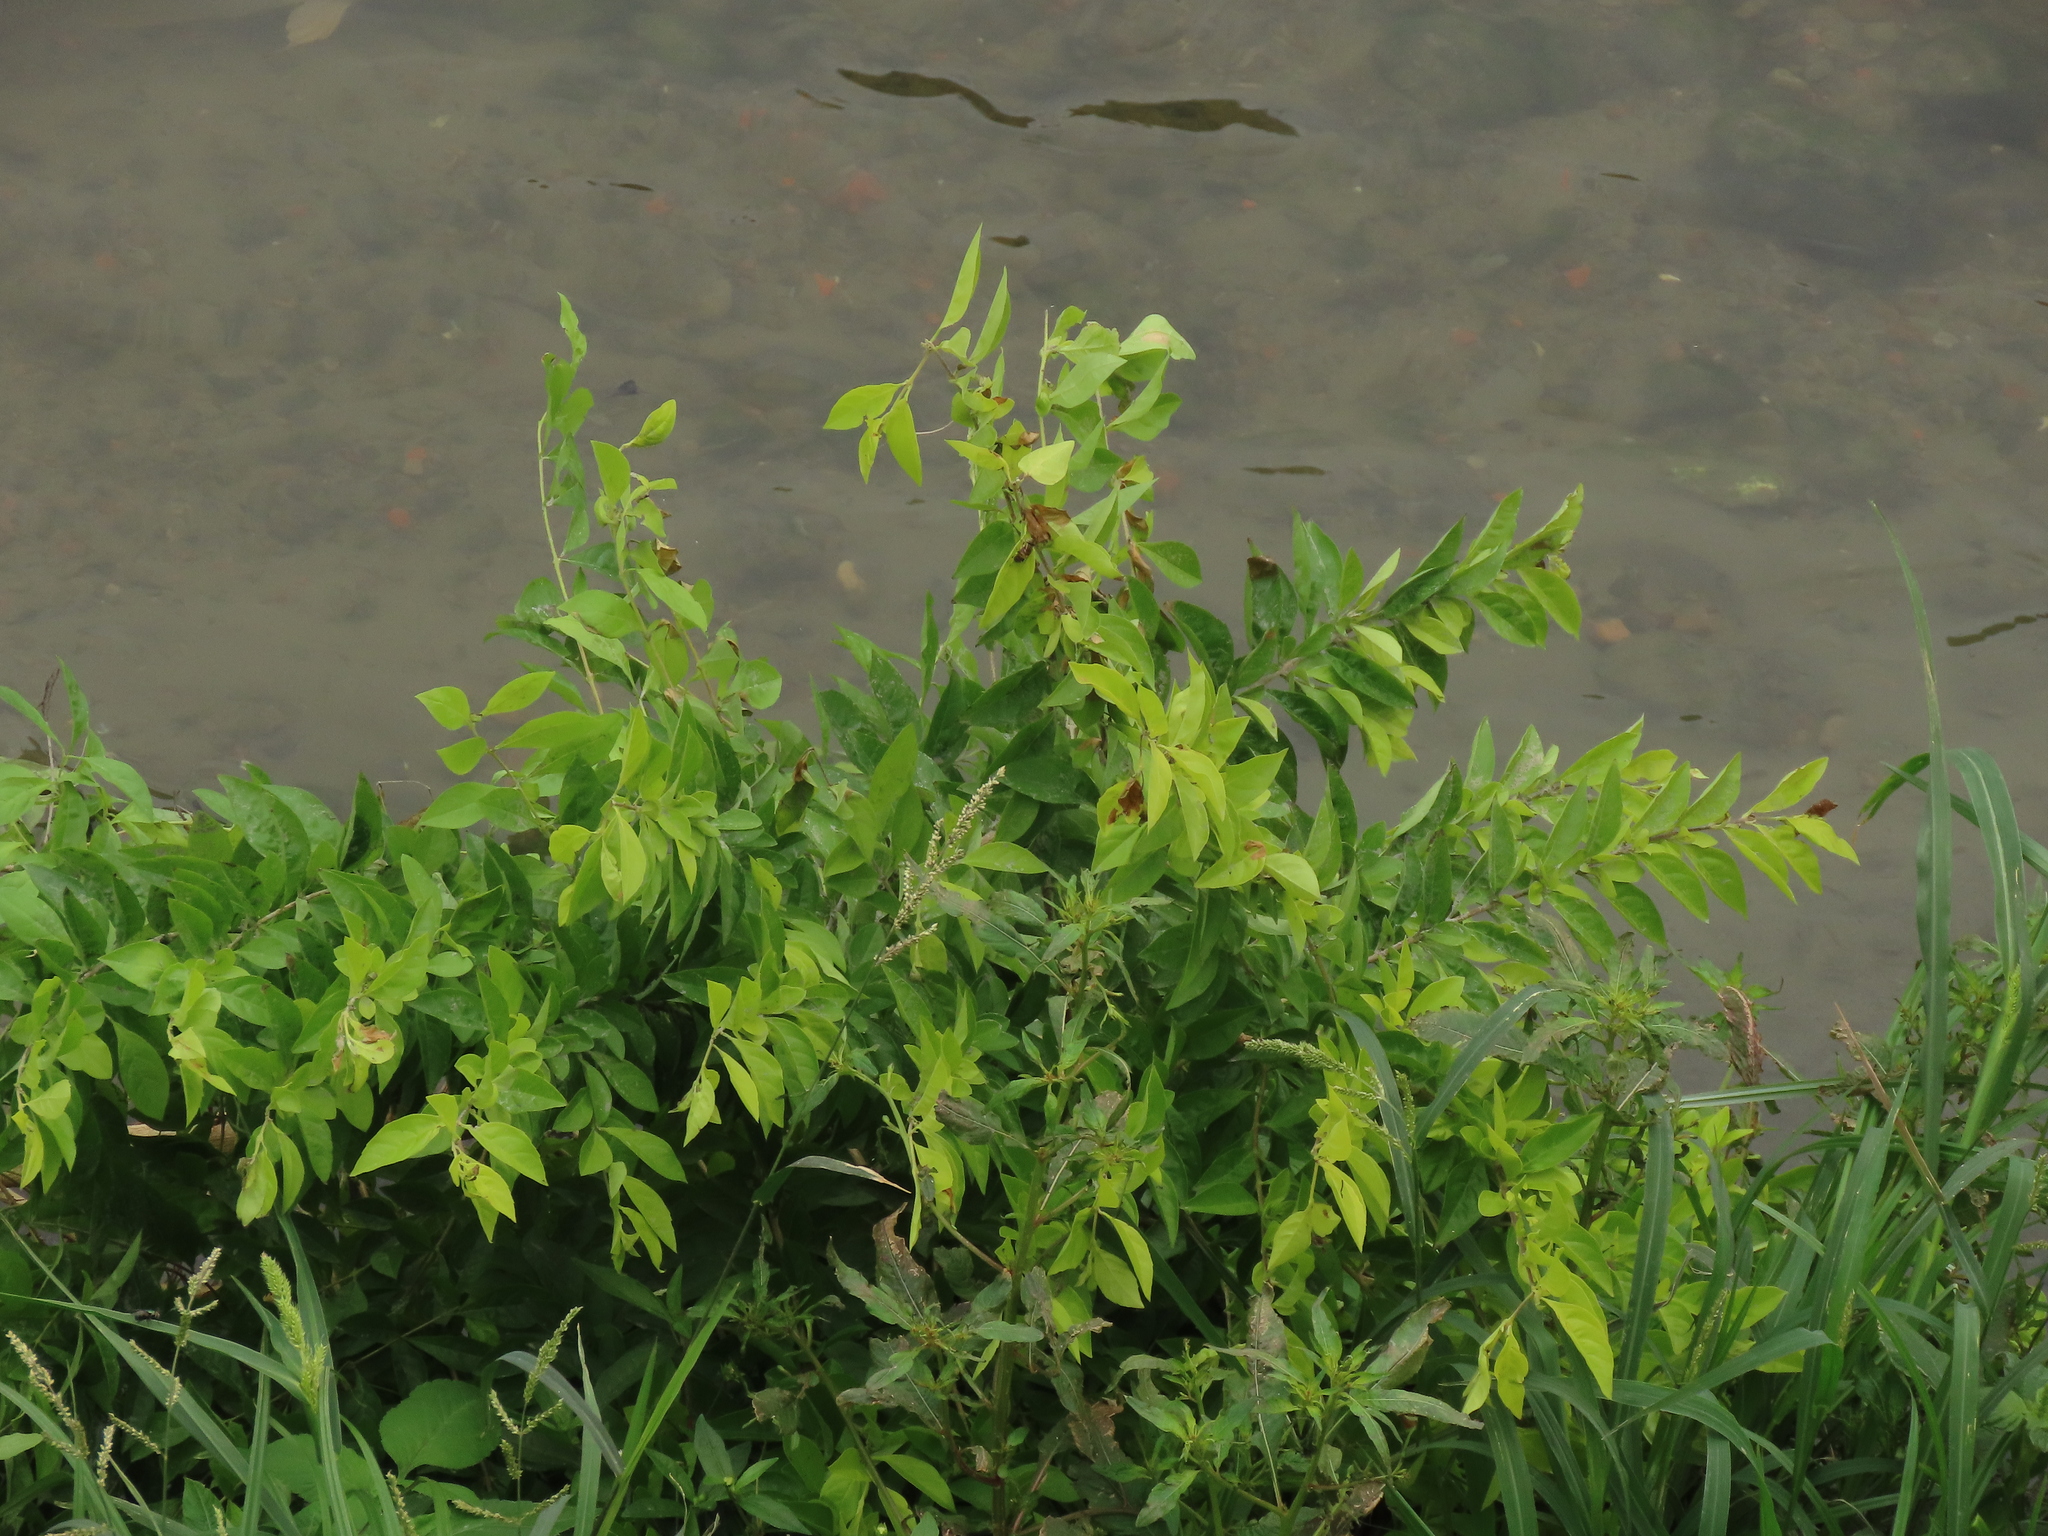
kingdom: Plantae
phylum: Tracheophyta
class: Magnoliopsida
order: Lamiales
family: Verbenaceae
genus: Duranta
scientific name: Duranta erecta
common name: Golden dewdrops
